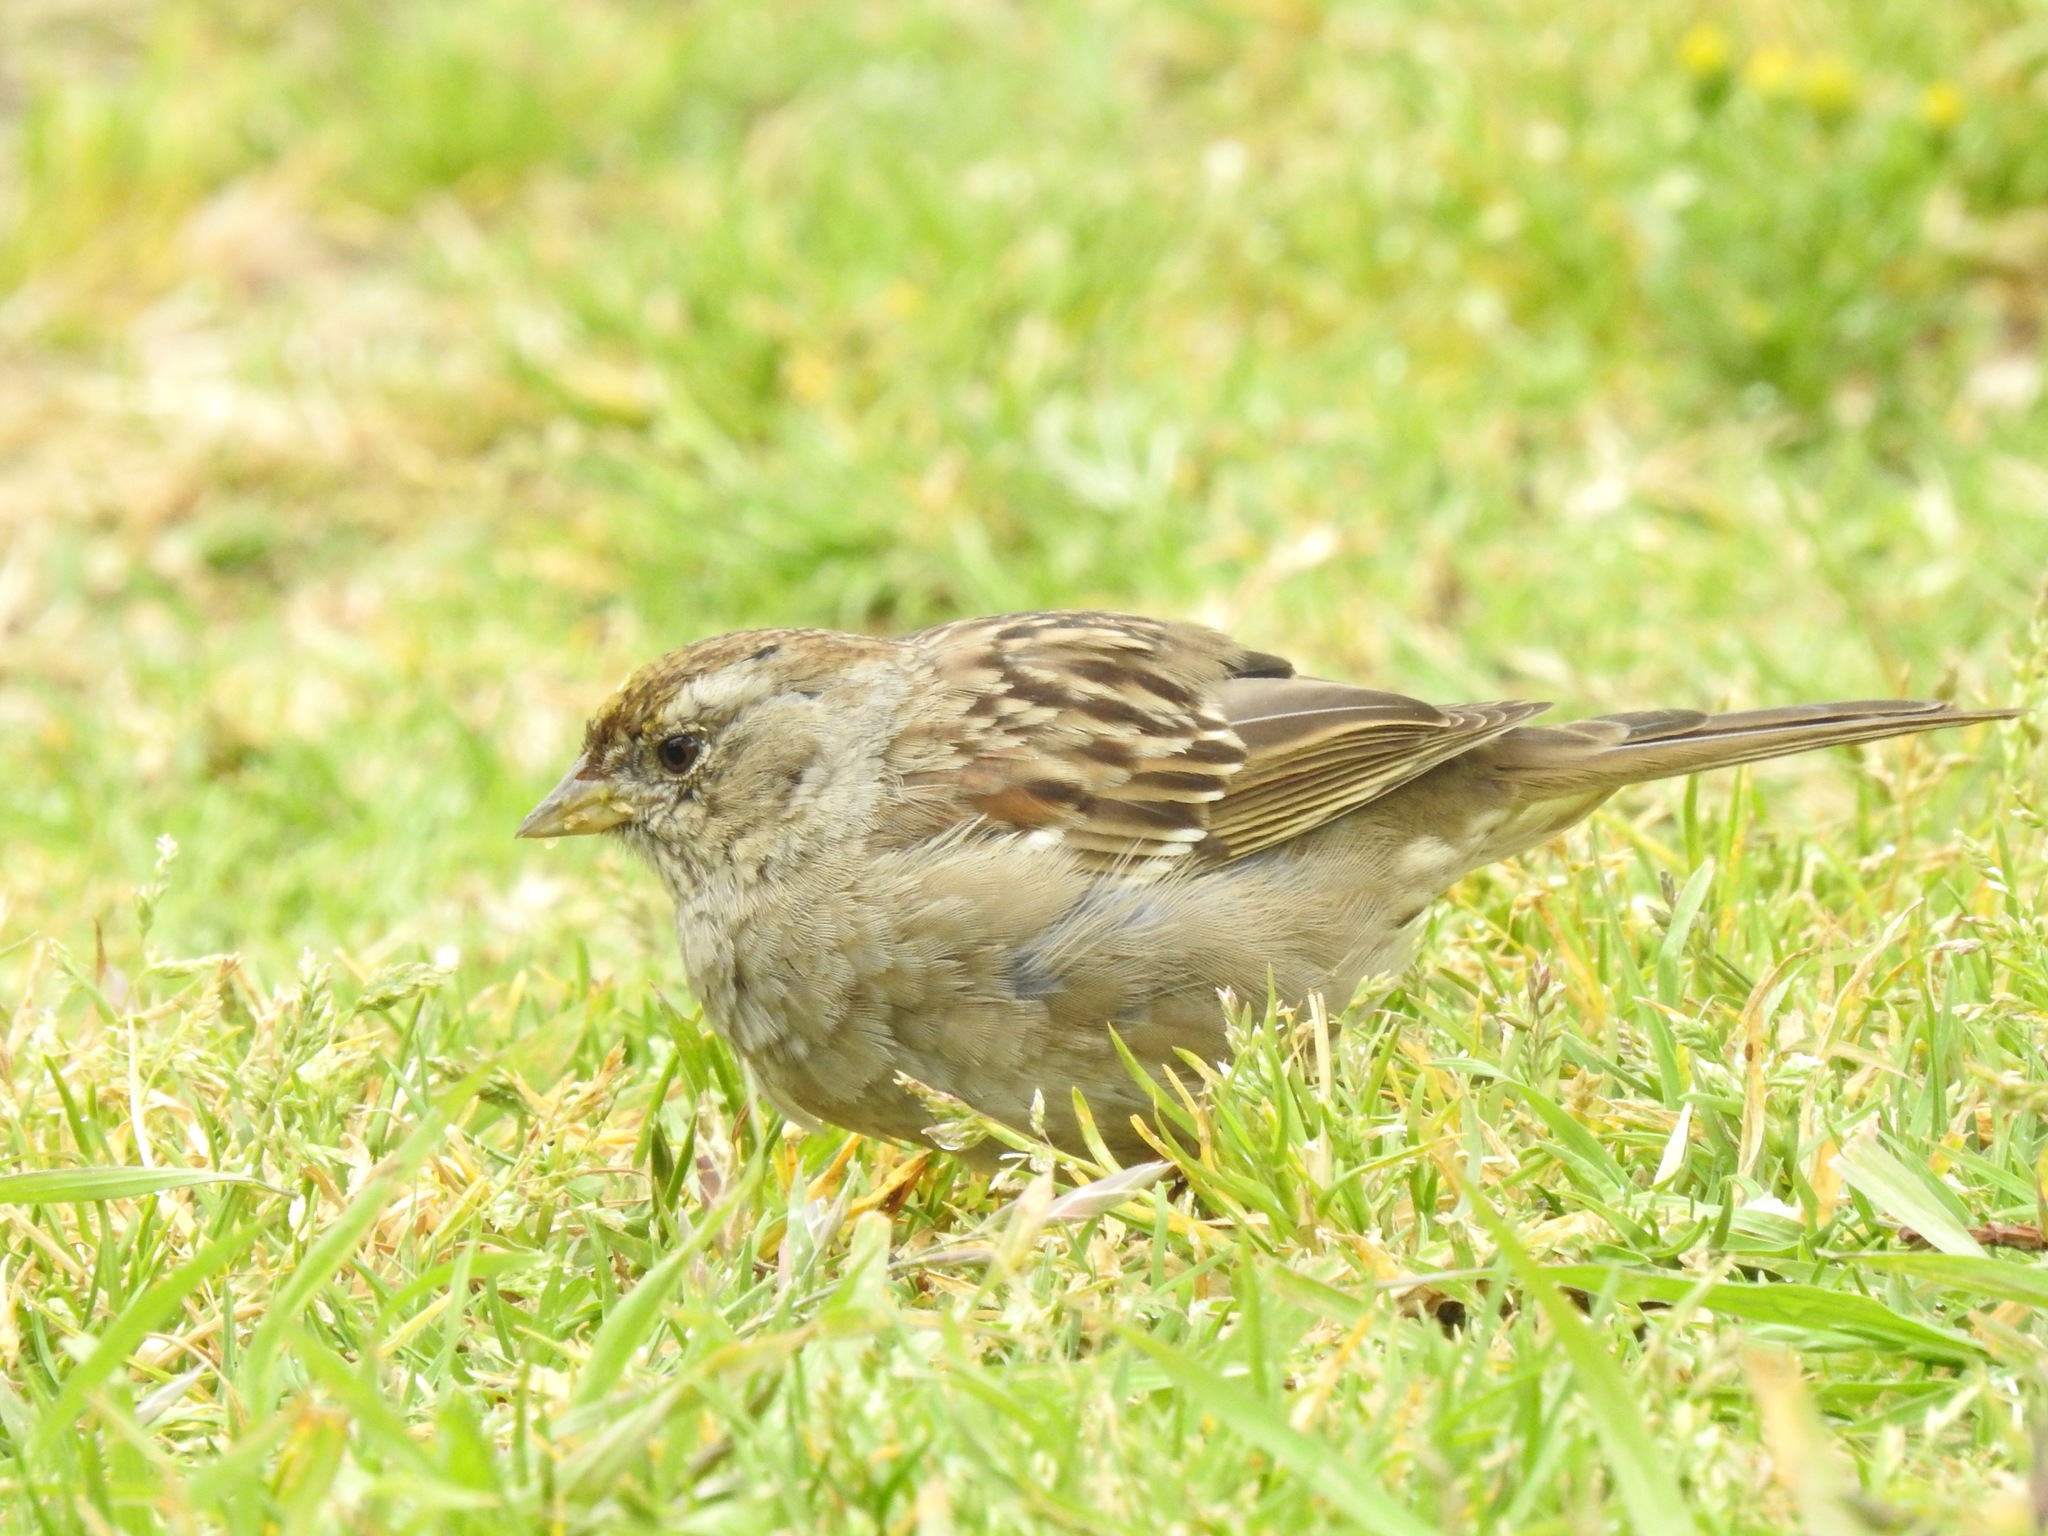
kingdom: Animalia
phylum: Chordata
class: Aves
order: Passeriformes
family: Passerellidae
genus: Zonotrichia
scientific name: Zonotrichia atricapilla
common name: Golden-crowned sparrow
